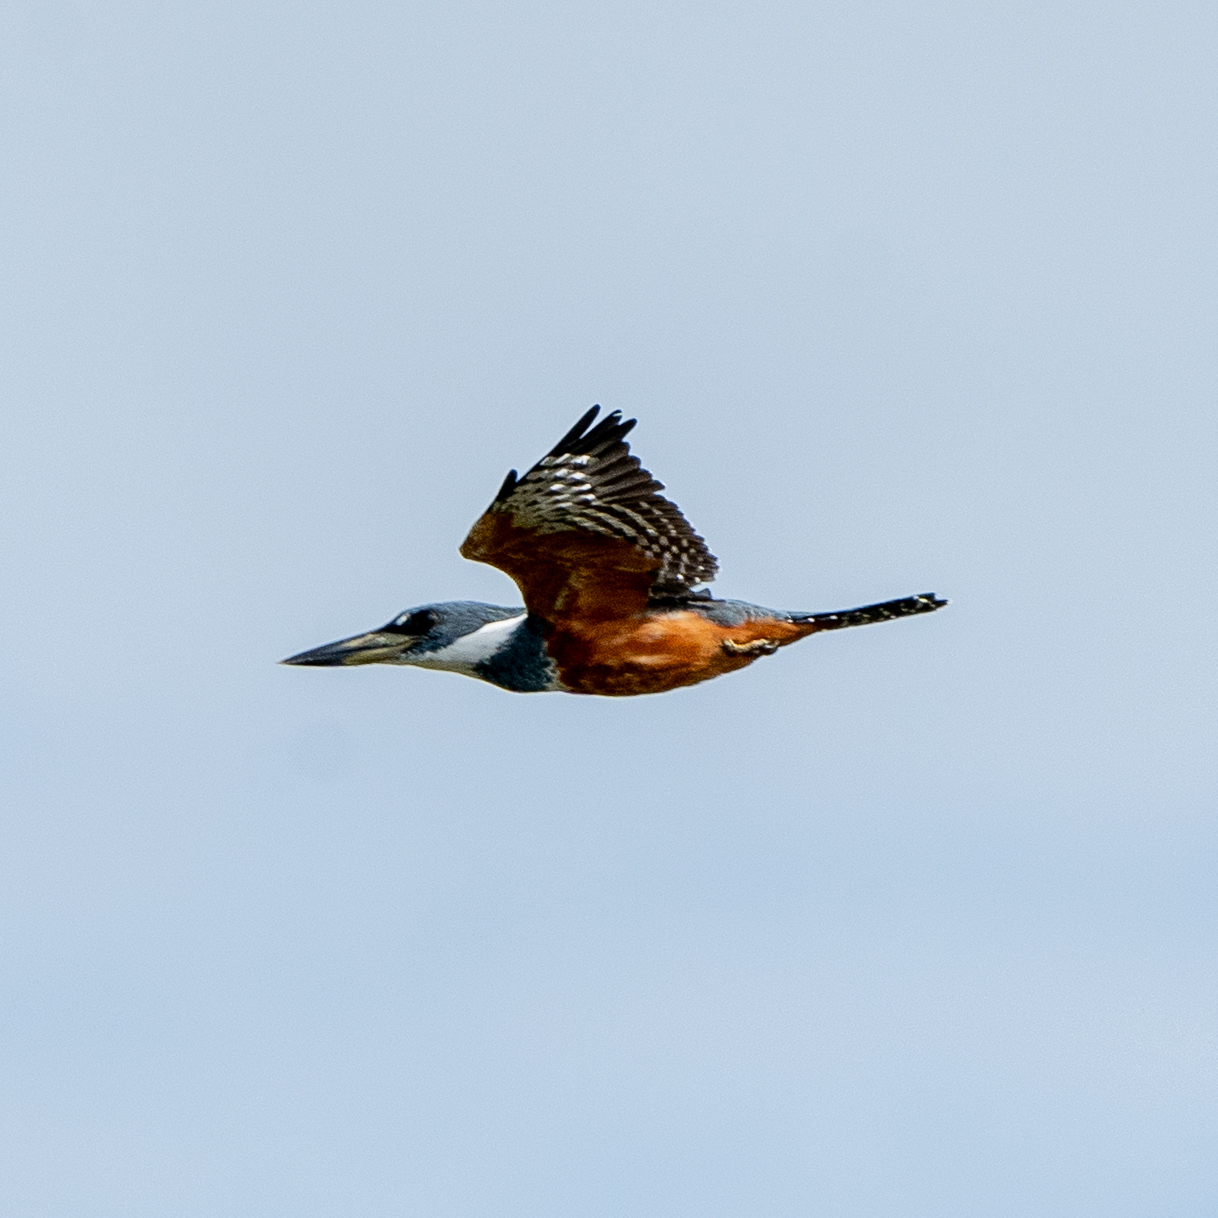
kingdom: Animalia
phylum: Chordata
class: Aves
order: Coraciiformes
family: Alcedinidae
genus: Megaceryle
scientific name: Megaceryle torquata
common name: Ringed kingfisher
